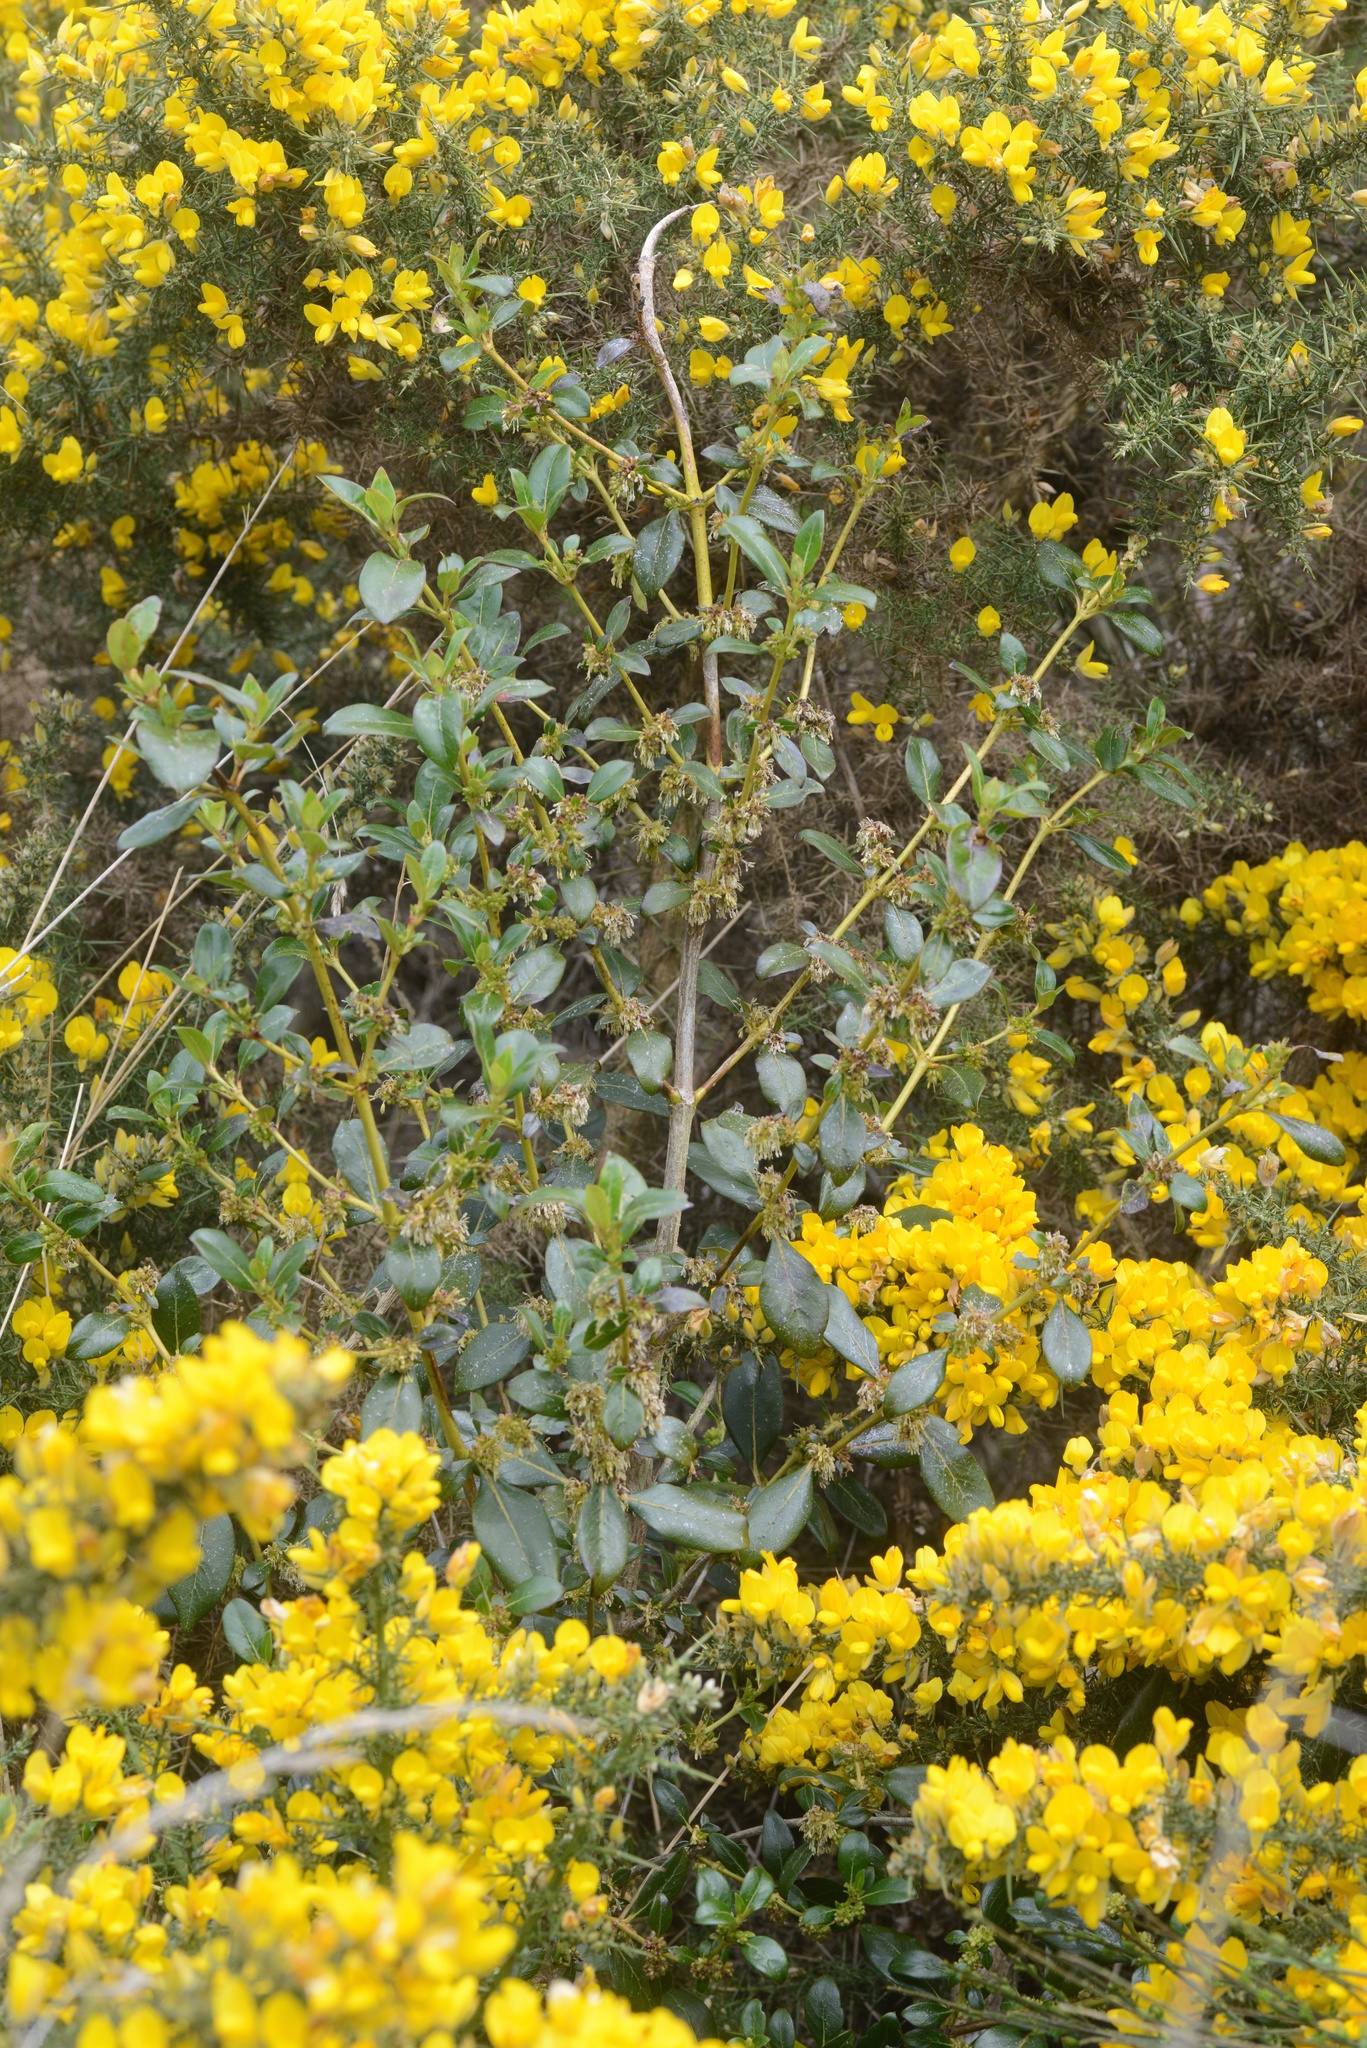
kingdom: Plantae
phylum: Tracheophyta
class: Magnoliopsida
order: Gentianales
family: Rubiaceae
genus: Coprosma
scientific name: Coprosma robusta
